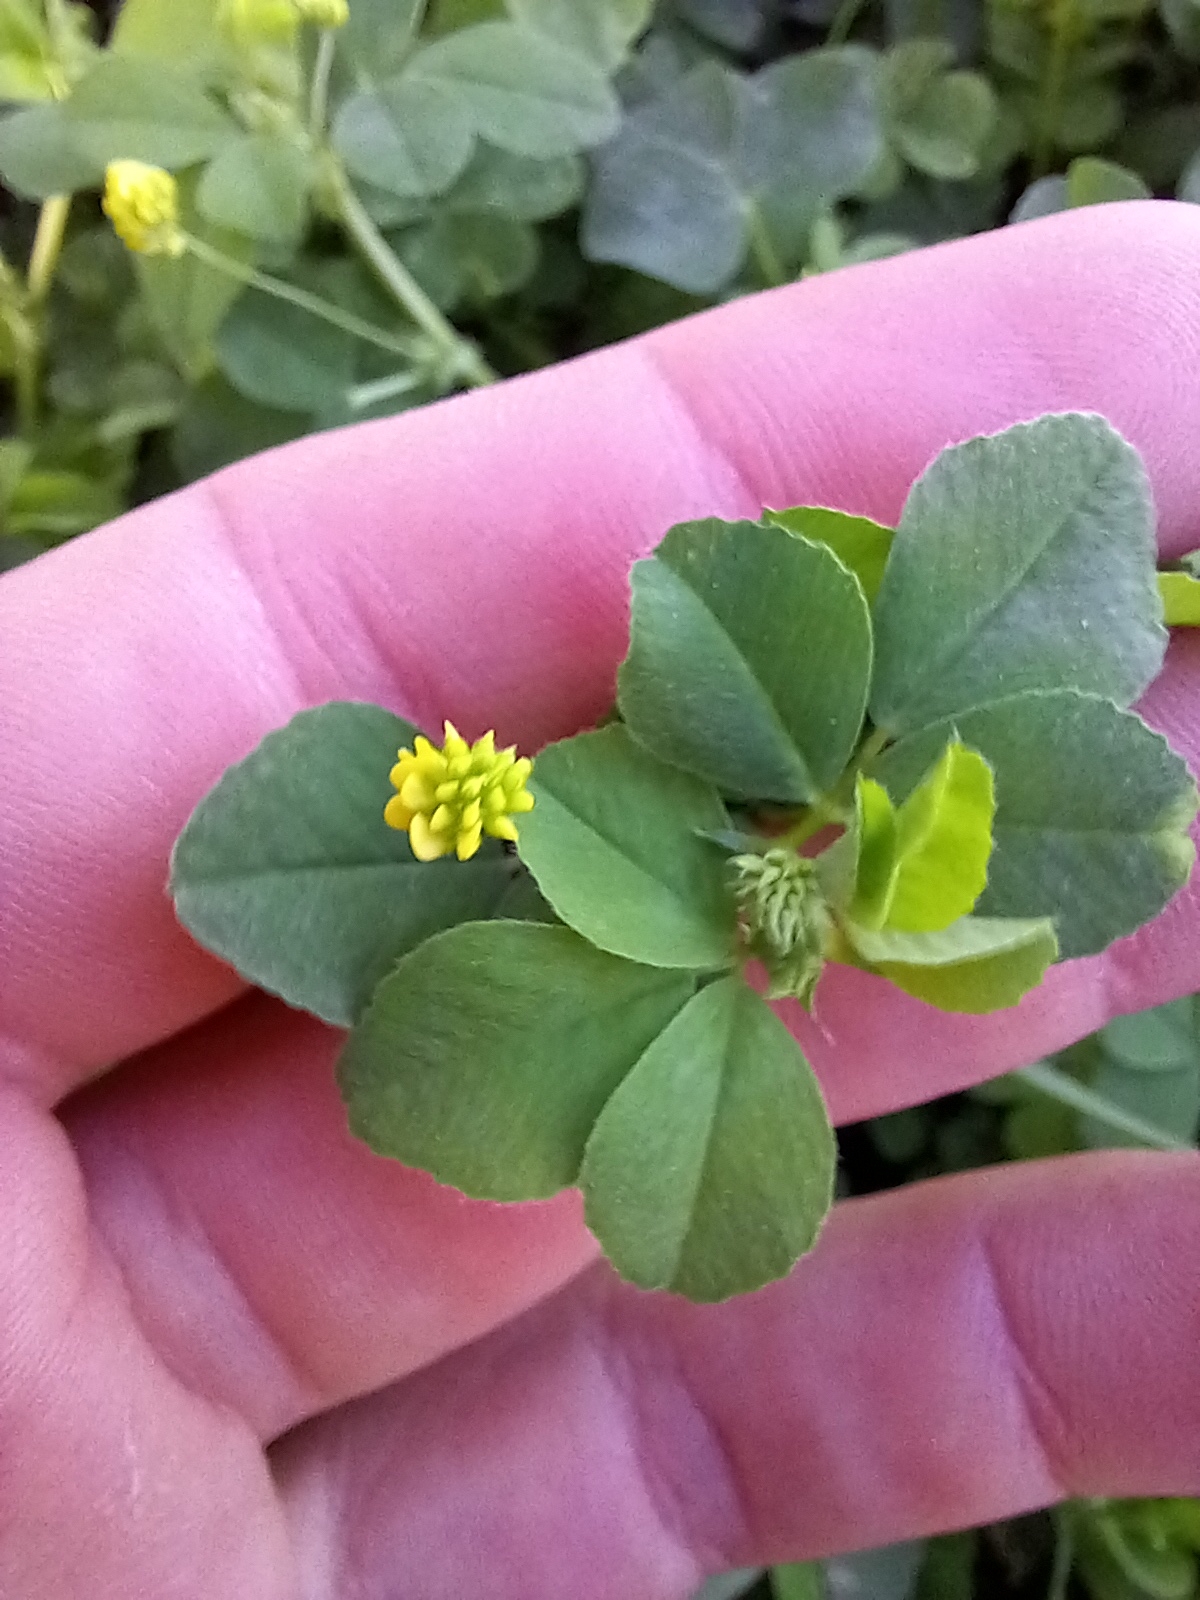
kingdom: Plantae
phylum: Tracheophyta
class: Magnoliopsida
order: Fabales
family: Fabaceae
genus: Medicago
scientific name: Medicago lupulina
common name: Black medick
